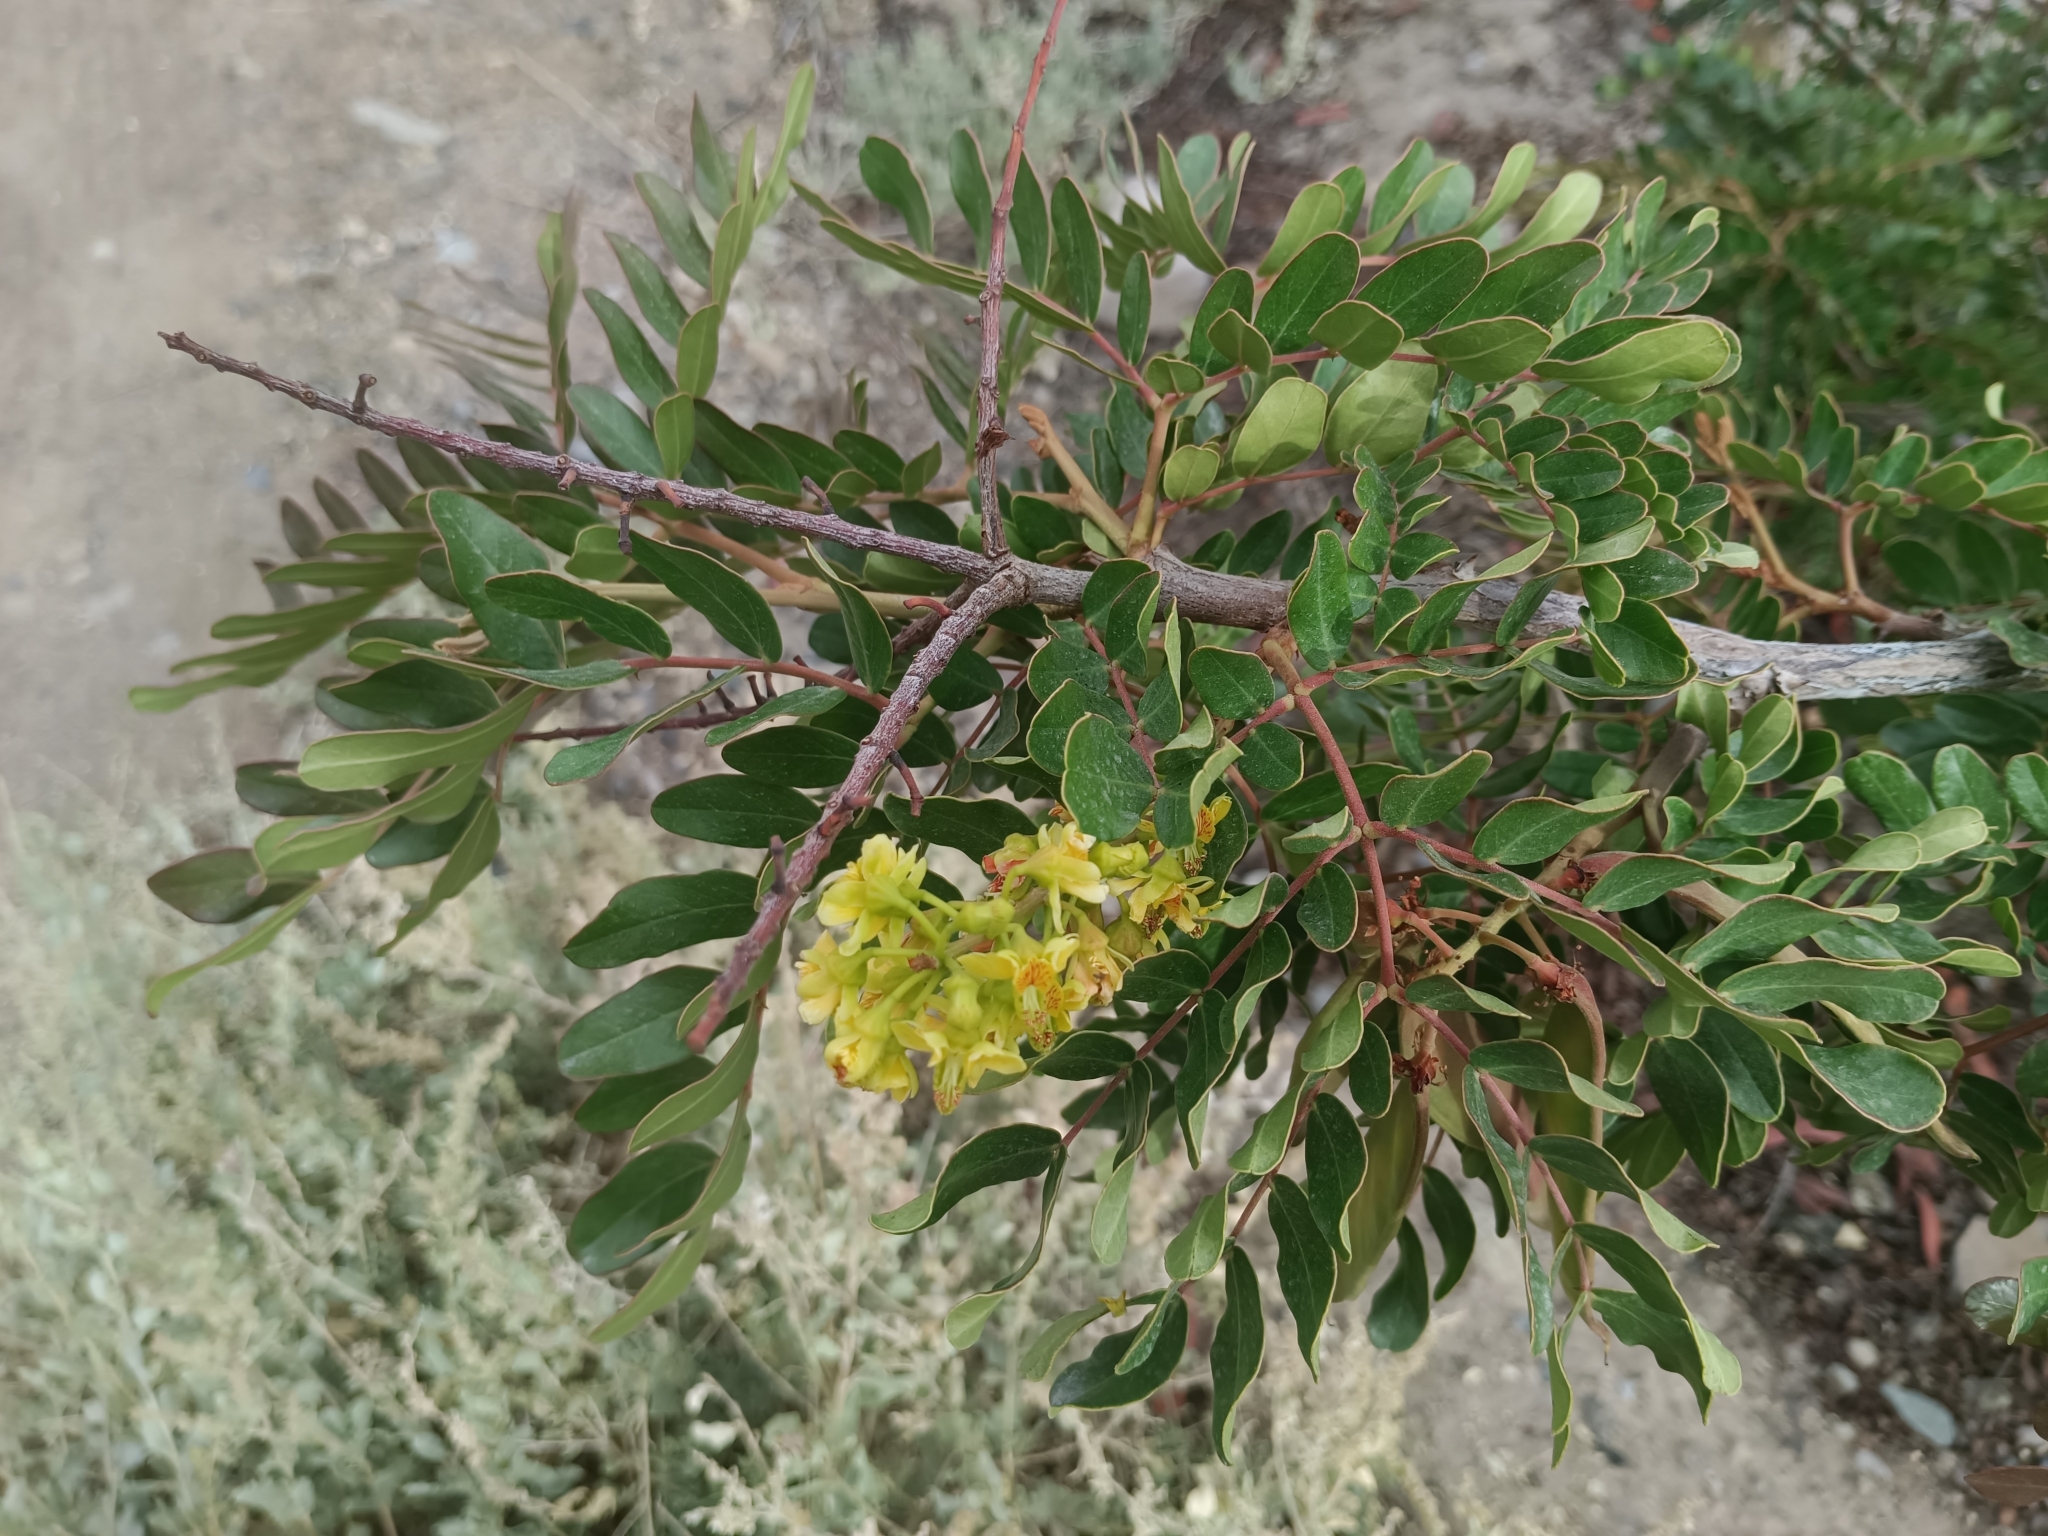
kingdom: Plantae
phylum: Tracheophyta
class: Magnoliopsida
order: Fabales
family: Fabaceae
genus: Tara
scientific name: Tara spinosa
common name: Spiny holdback
